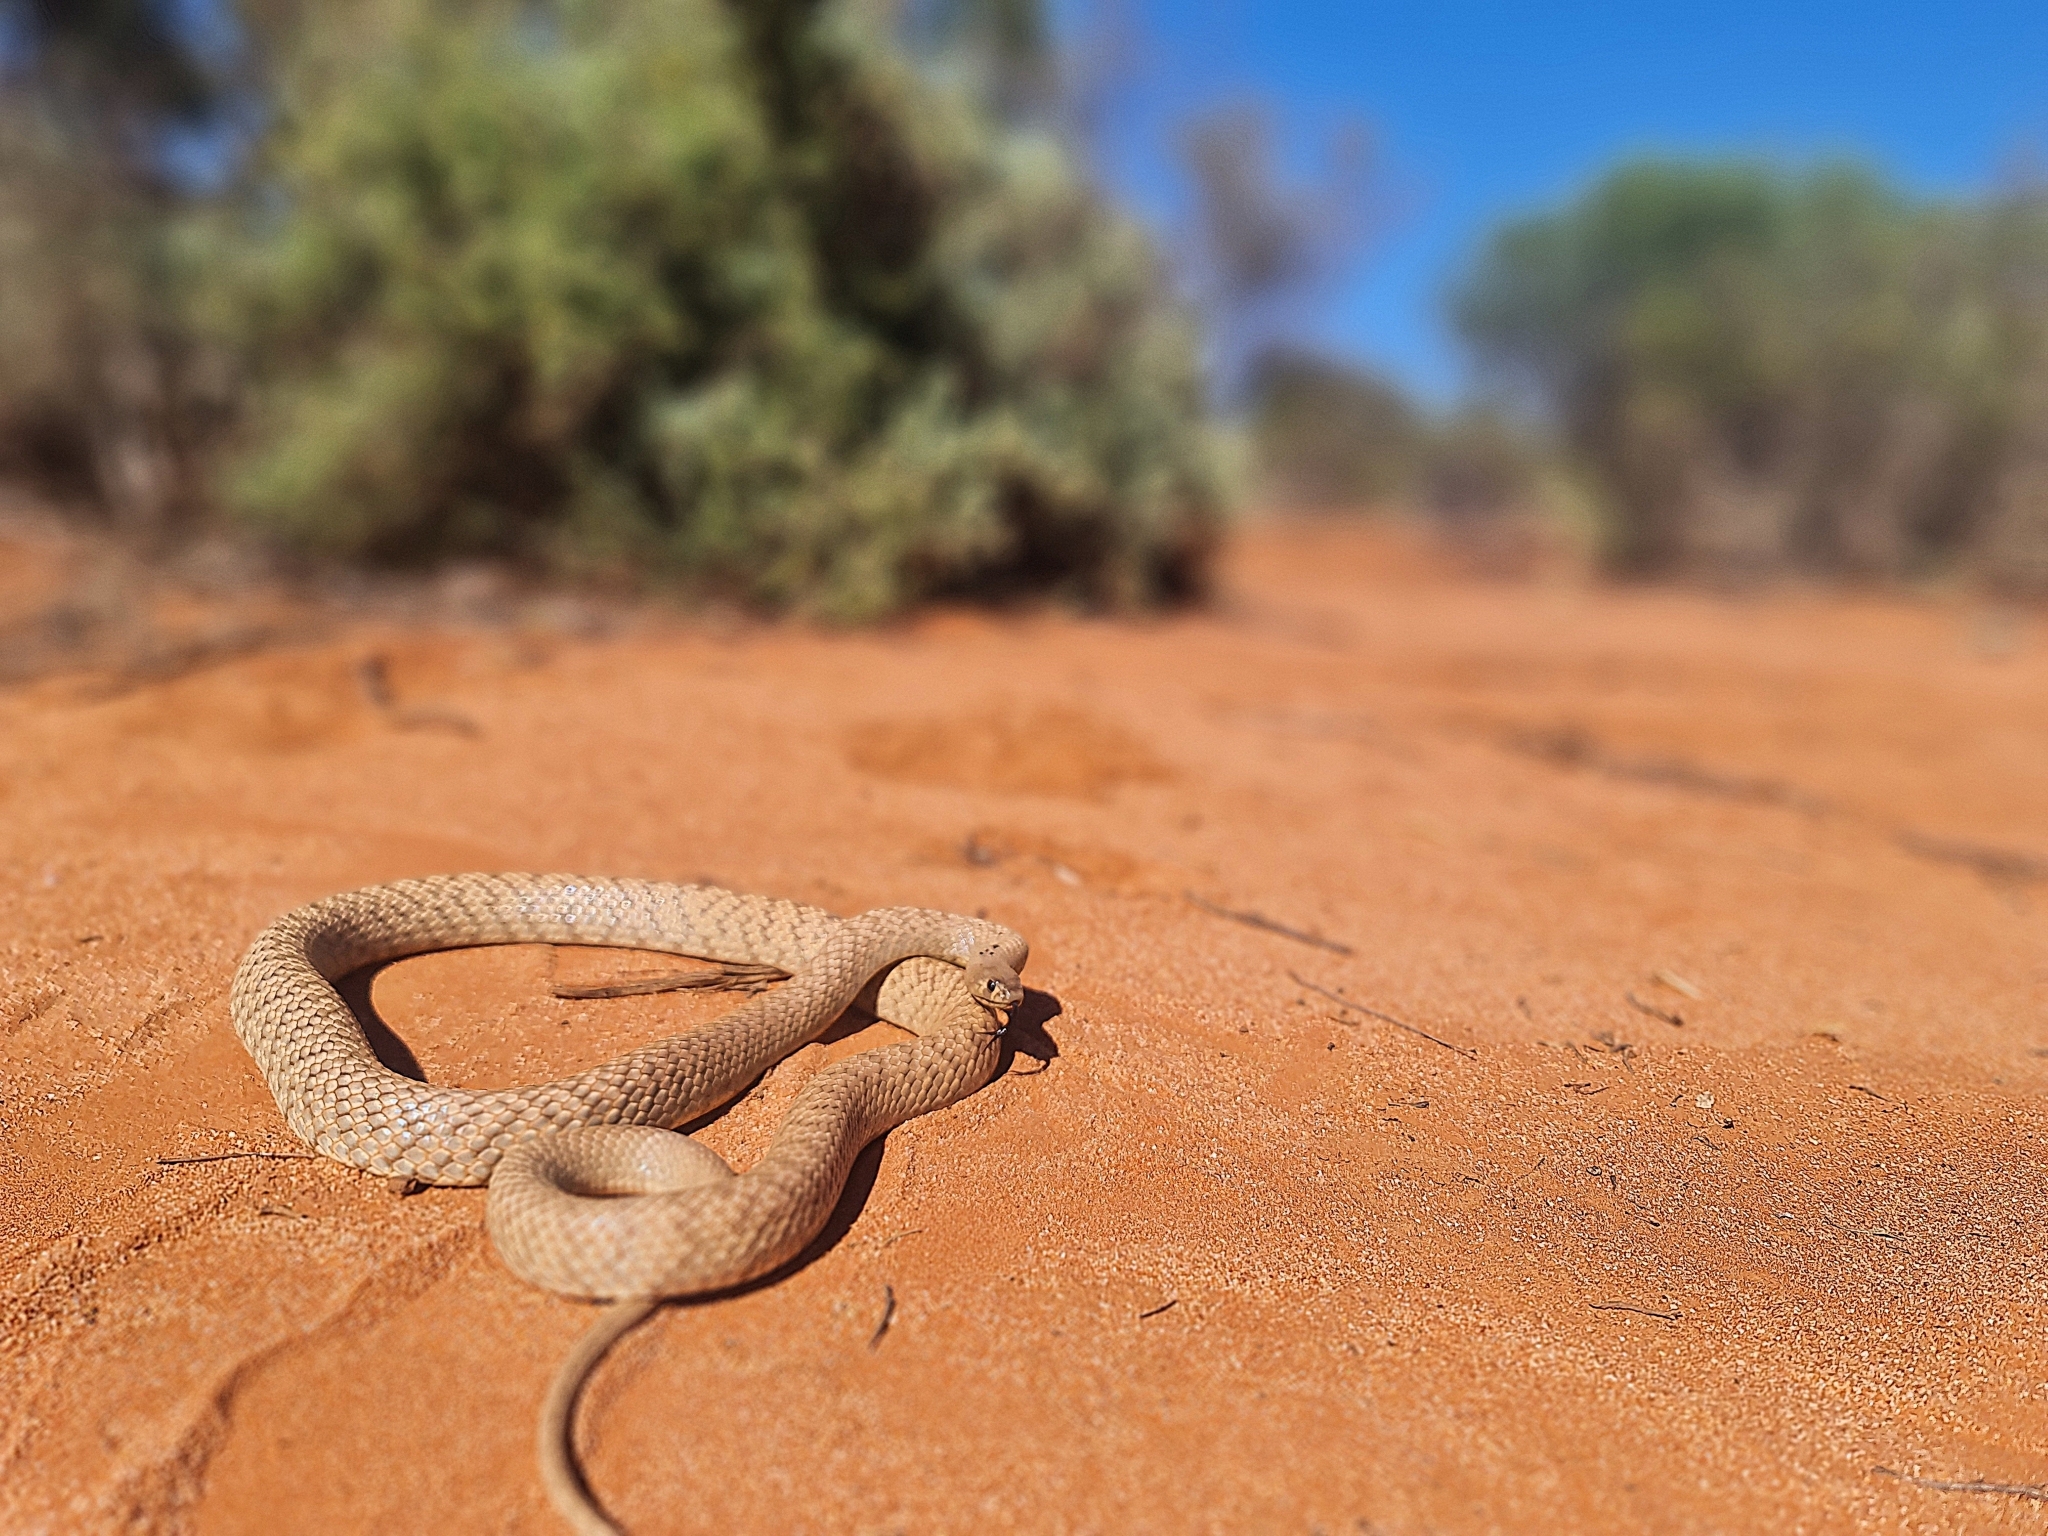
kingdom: Animalia
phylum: Chordata
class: Squamata
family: Elapidae
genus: Pseudonaja
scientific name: Pseudonaja aspidorhyncha
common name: Strap-snouted brown snake
